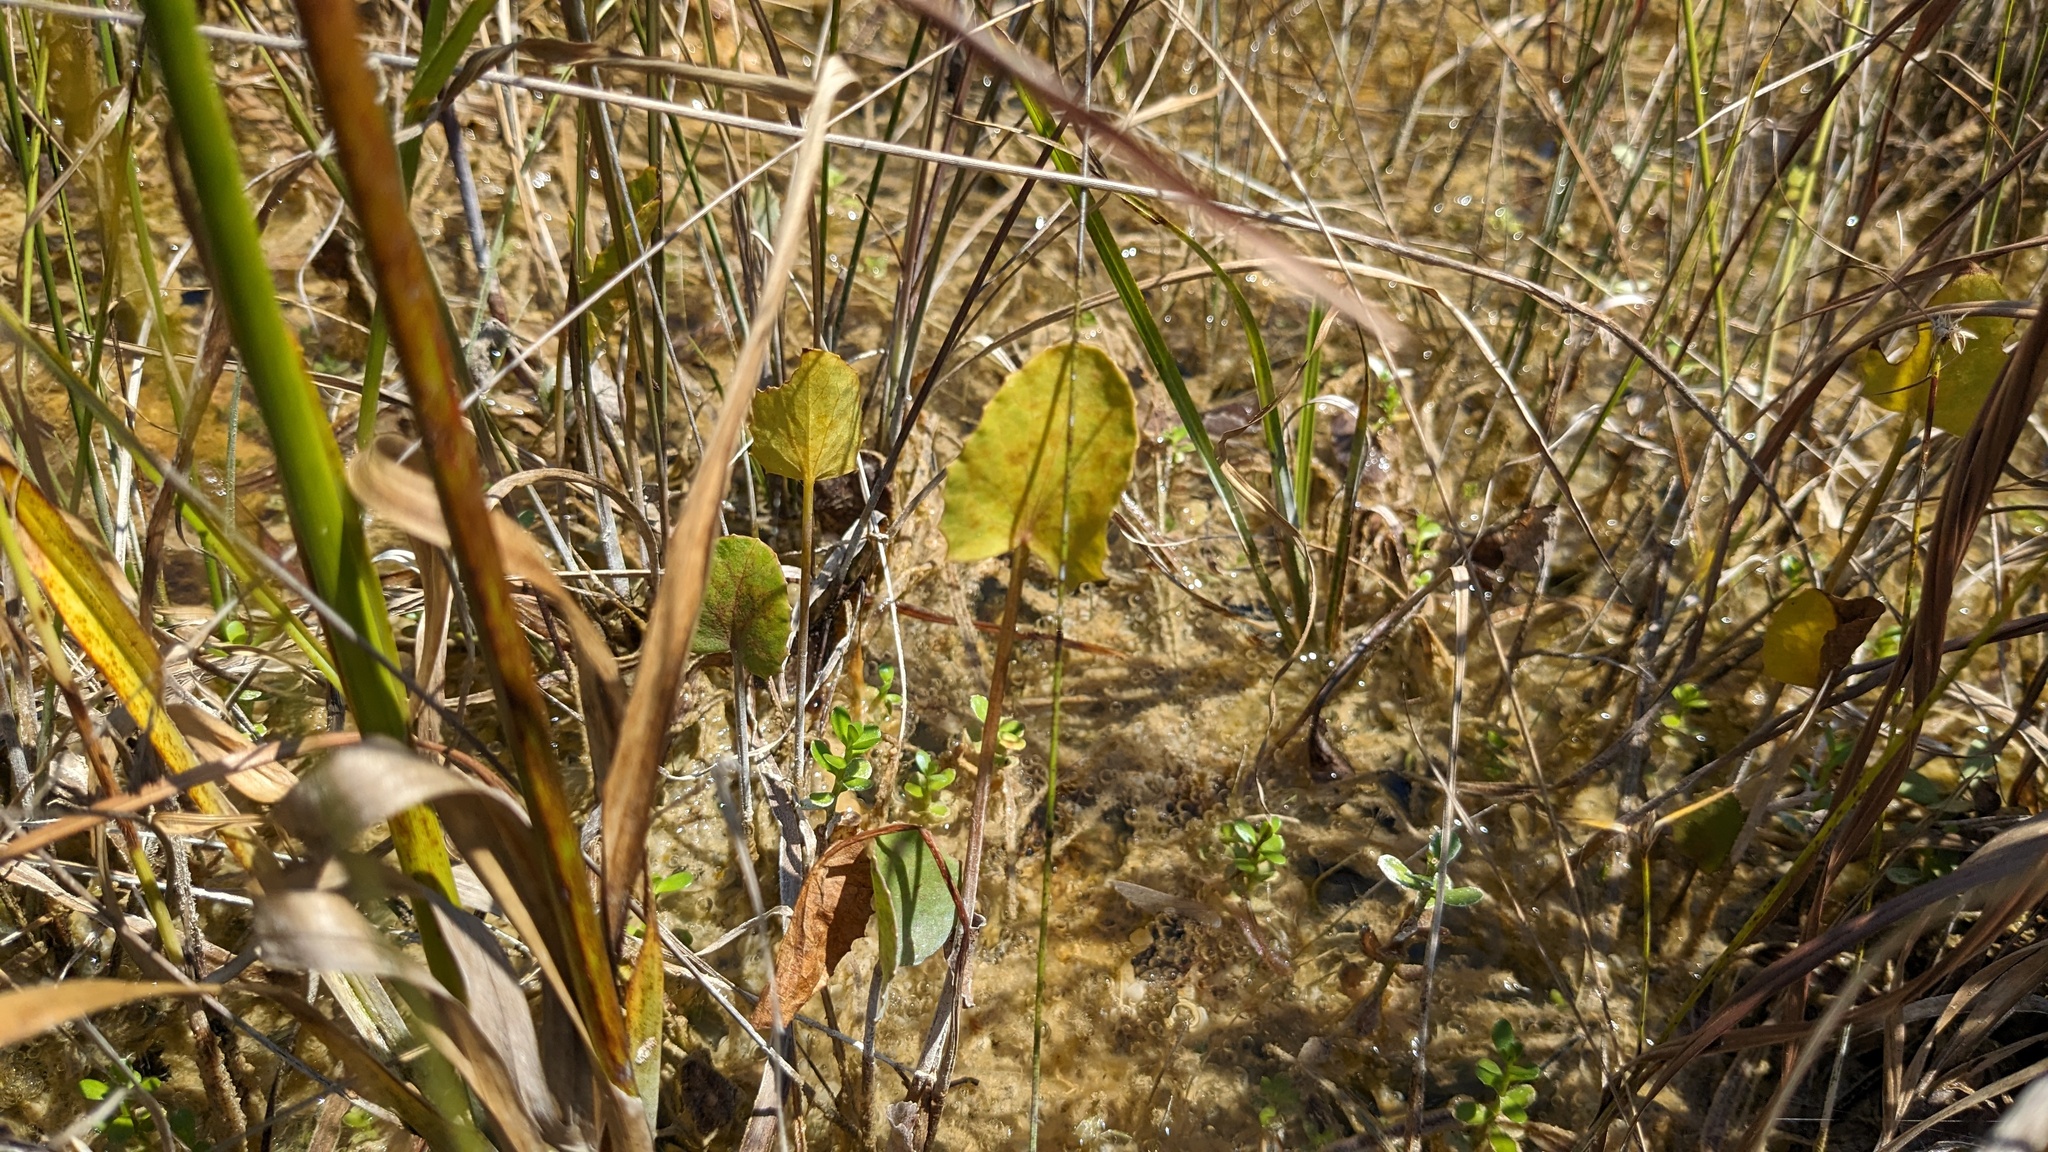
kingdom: Plantae
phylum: Tracheophyta
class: Magnoliopsida
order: Apiales
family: Apiaceae
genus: Centella
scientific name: Centella erecta
